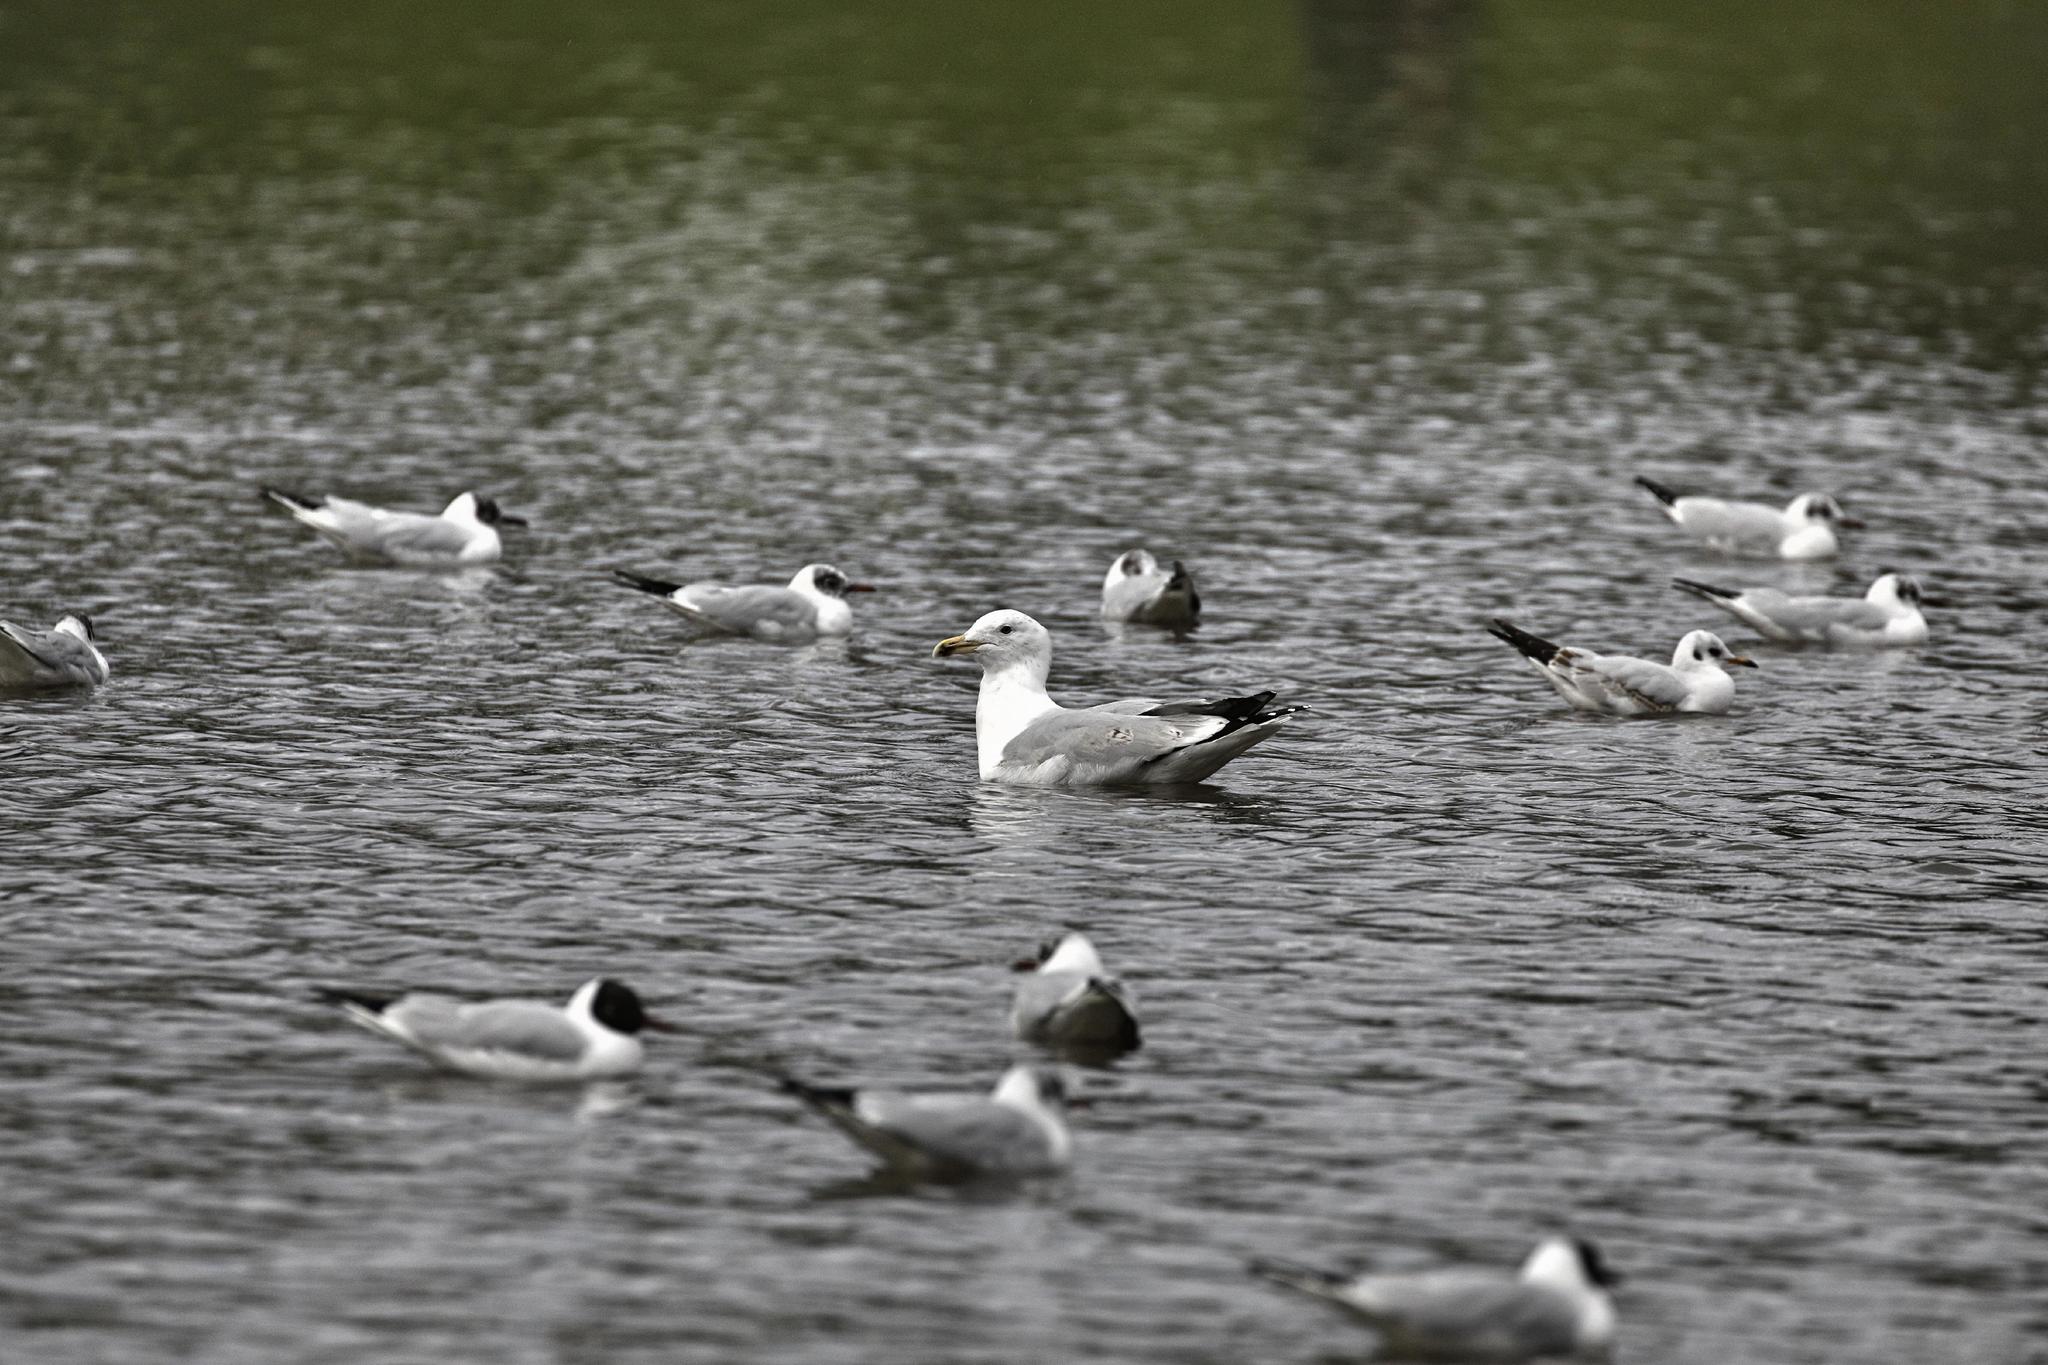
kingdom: Animalia
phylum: Chordata
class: Aves
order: Charadriiformes
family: Laridae
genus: Larus
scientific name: Larus argentatus
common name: Herring gull
